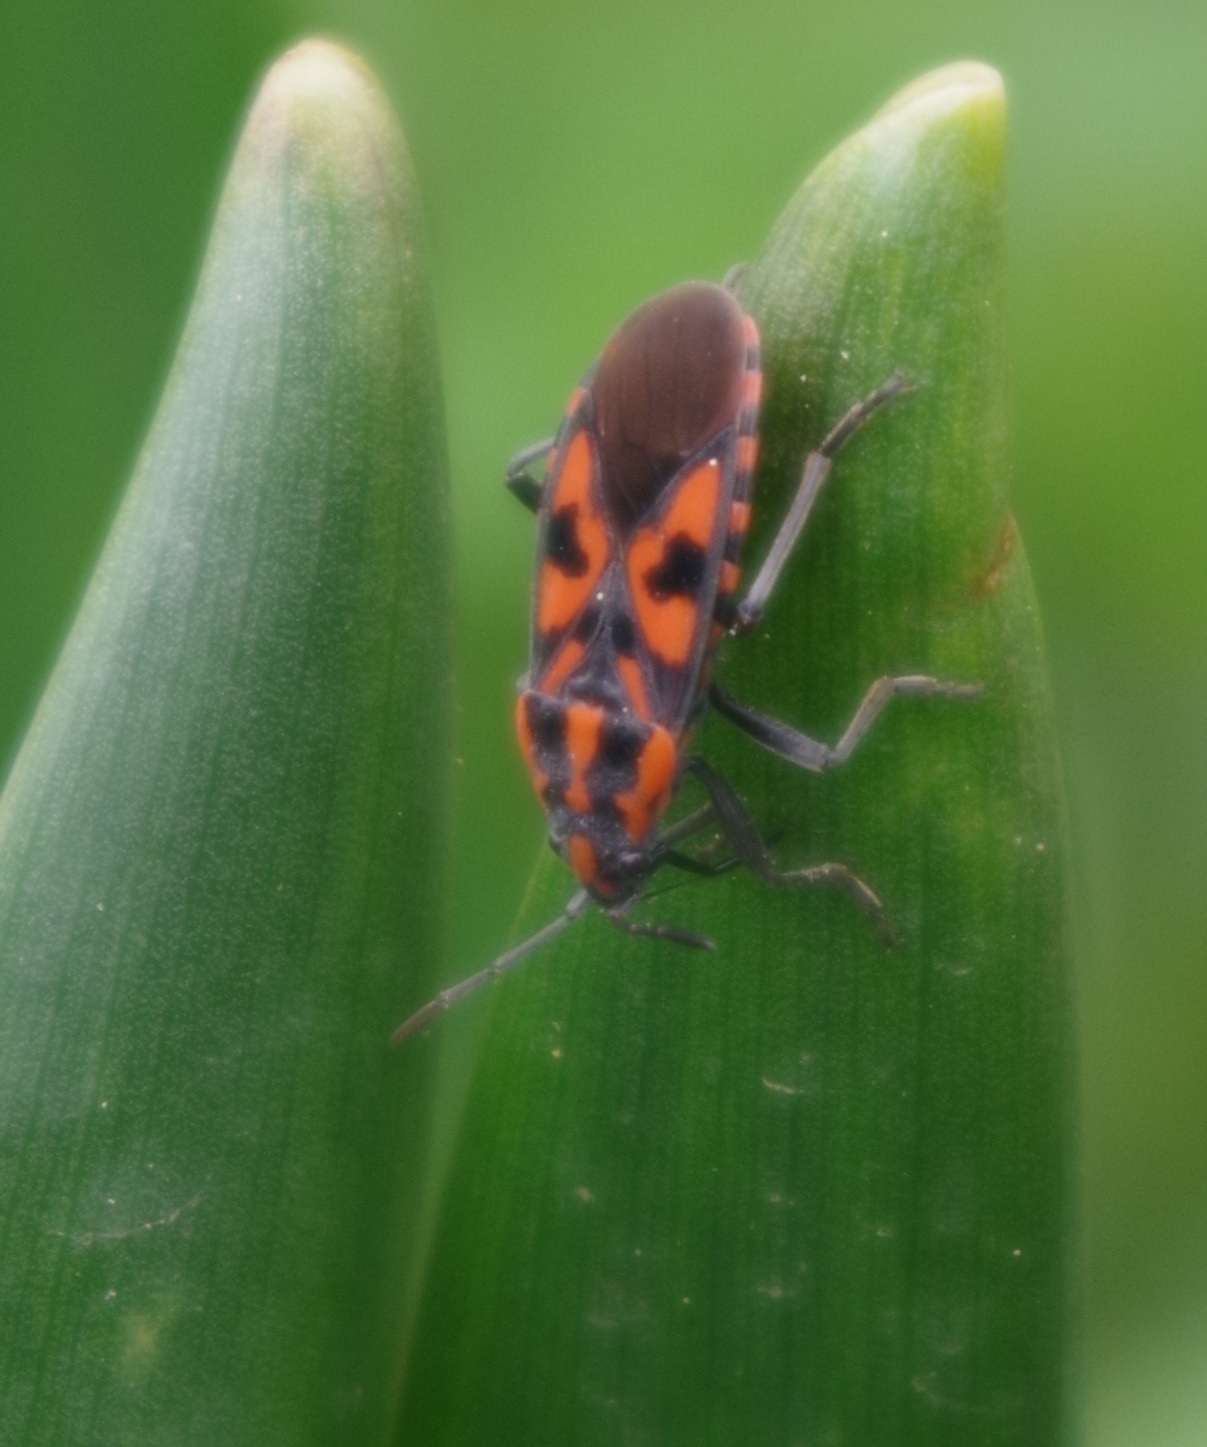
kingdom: Animalia
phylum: Arthropoda
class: Insecta
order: Hemiptera
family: Lygaeidae
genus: Spilostethus
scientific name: Spilostethus saxatilis
